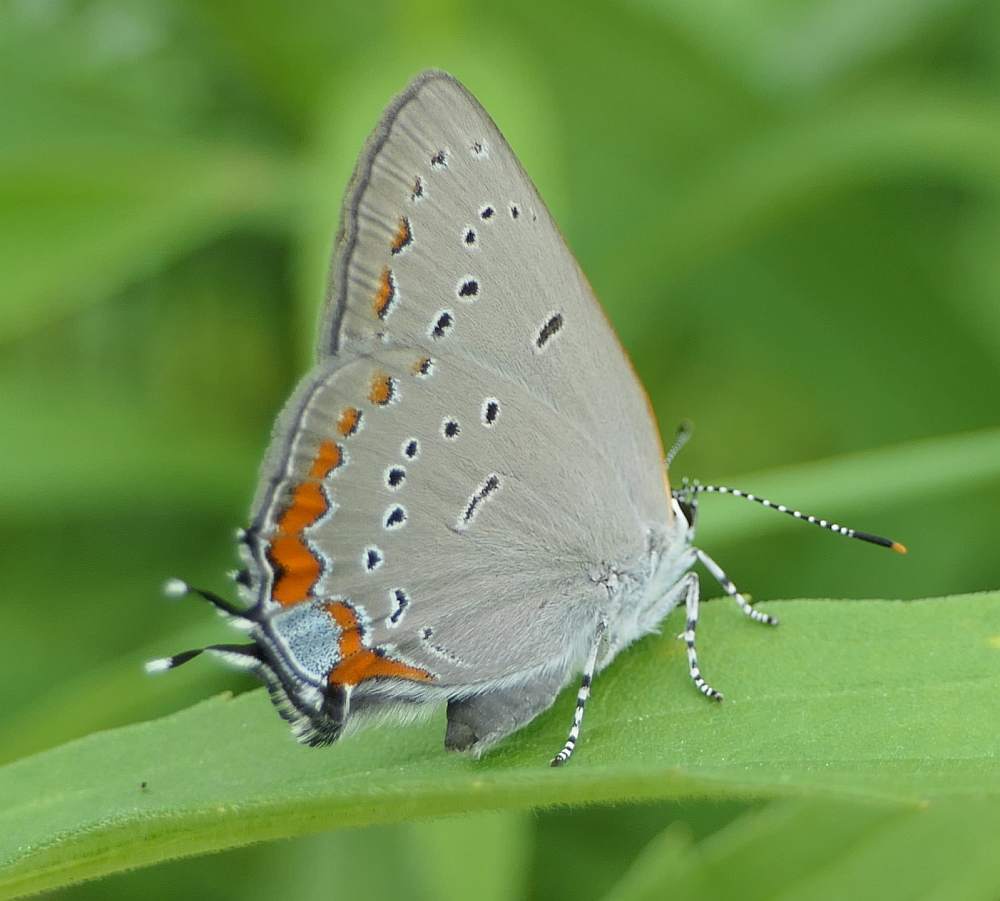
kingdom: Animalia
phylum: Arthropoda
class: Insecta
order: Lepidoptera
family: Lycaenidae
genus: Strymon
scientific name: Strymon acadica
